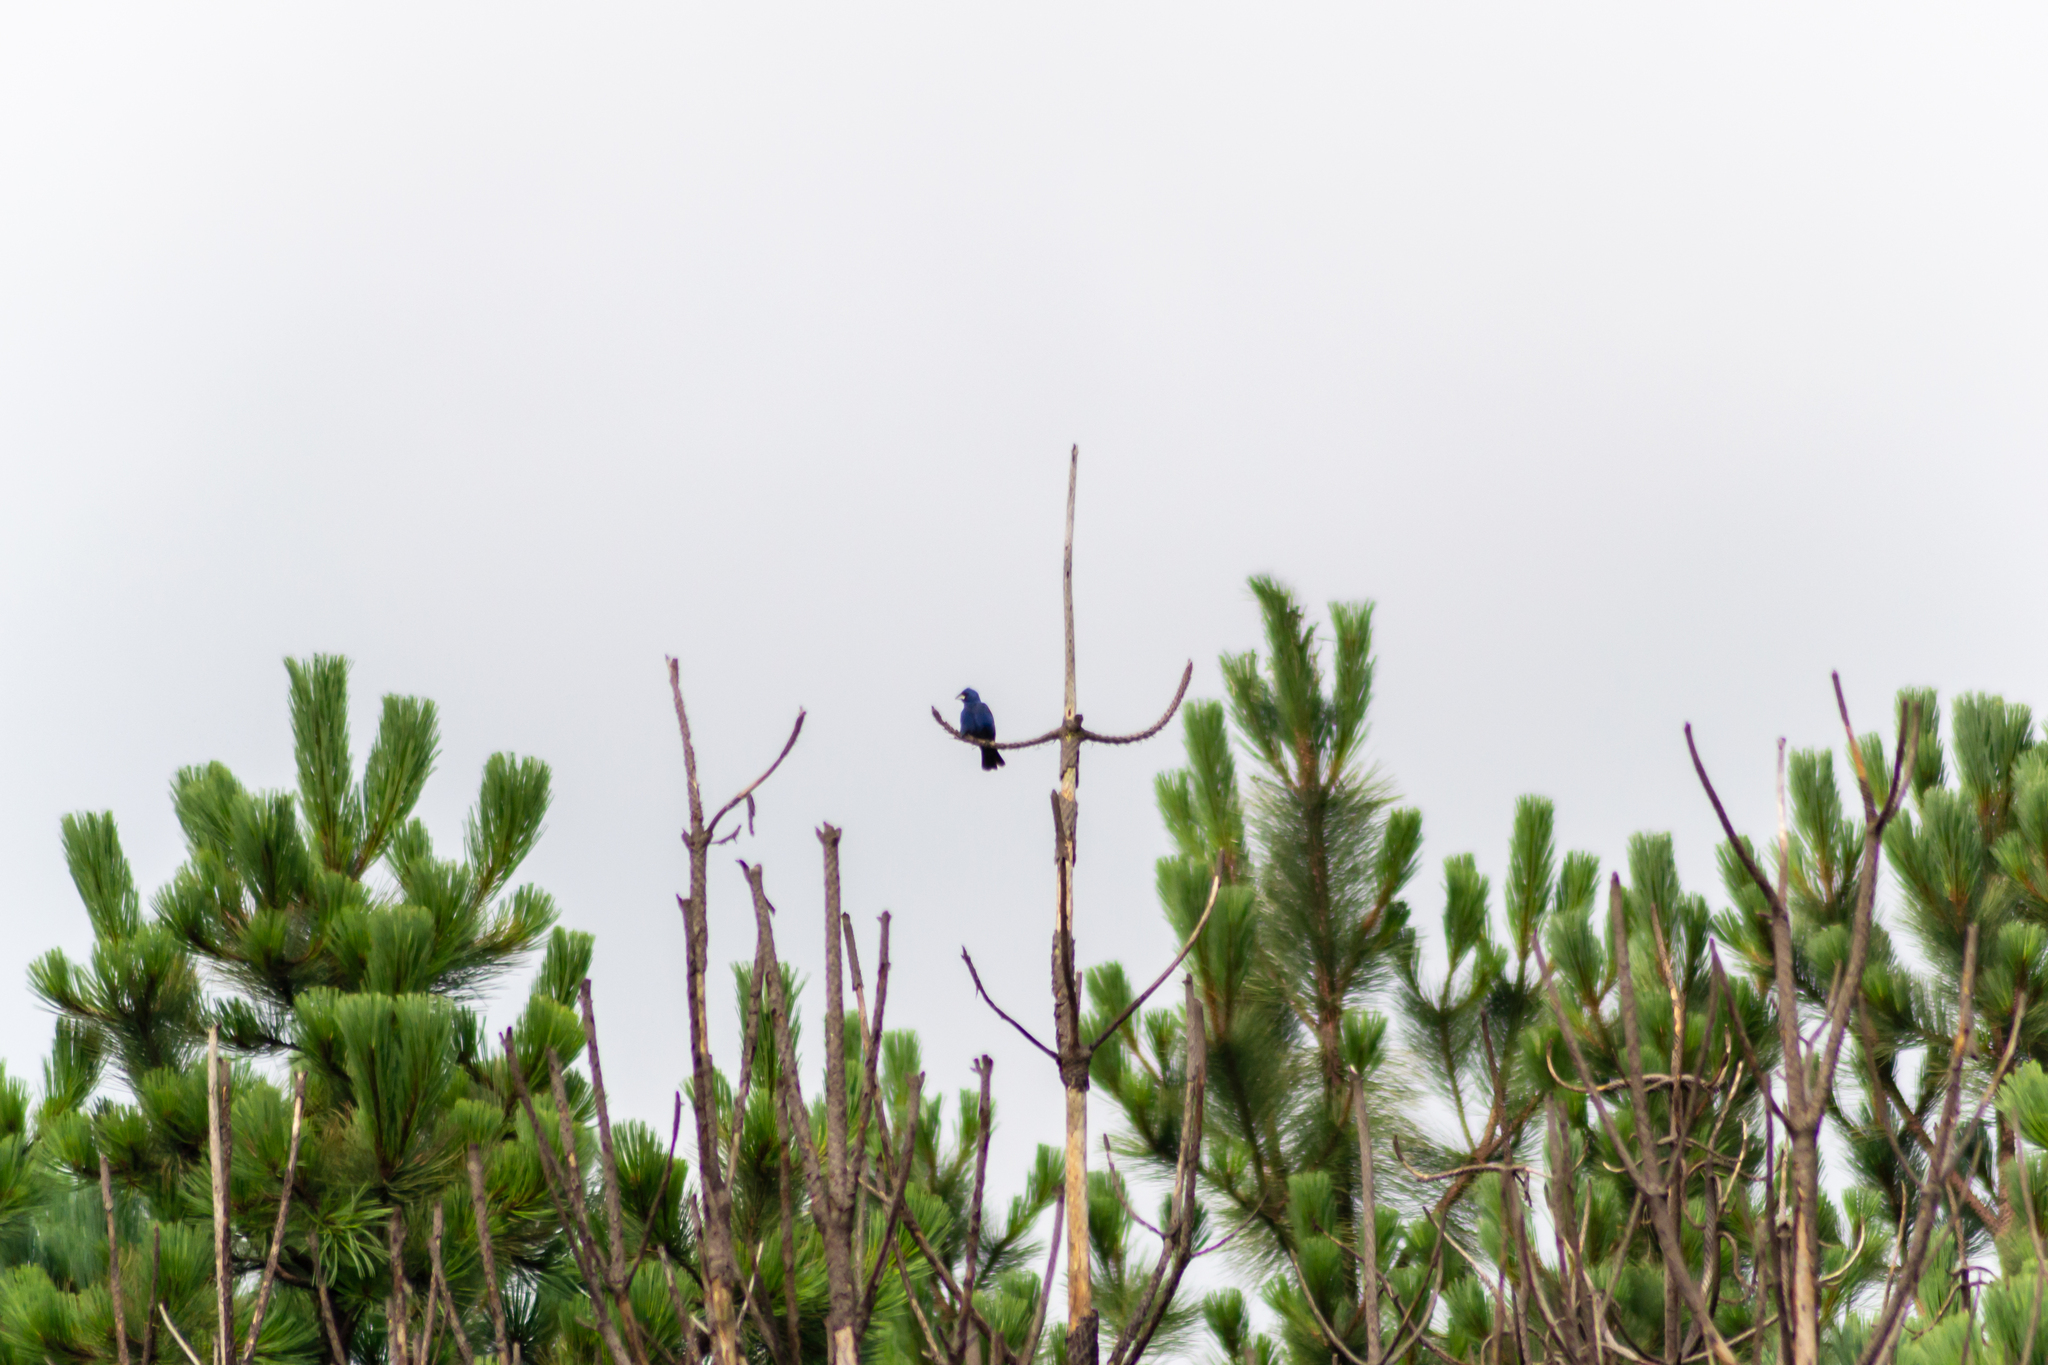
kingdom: Animalia
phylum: Chordata
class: Aves
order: Passeriformes
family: Cardinalidae
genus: Passerina
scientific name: Passerina caerulea
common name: Blue grosbeak
